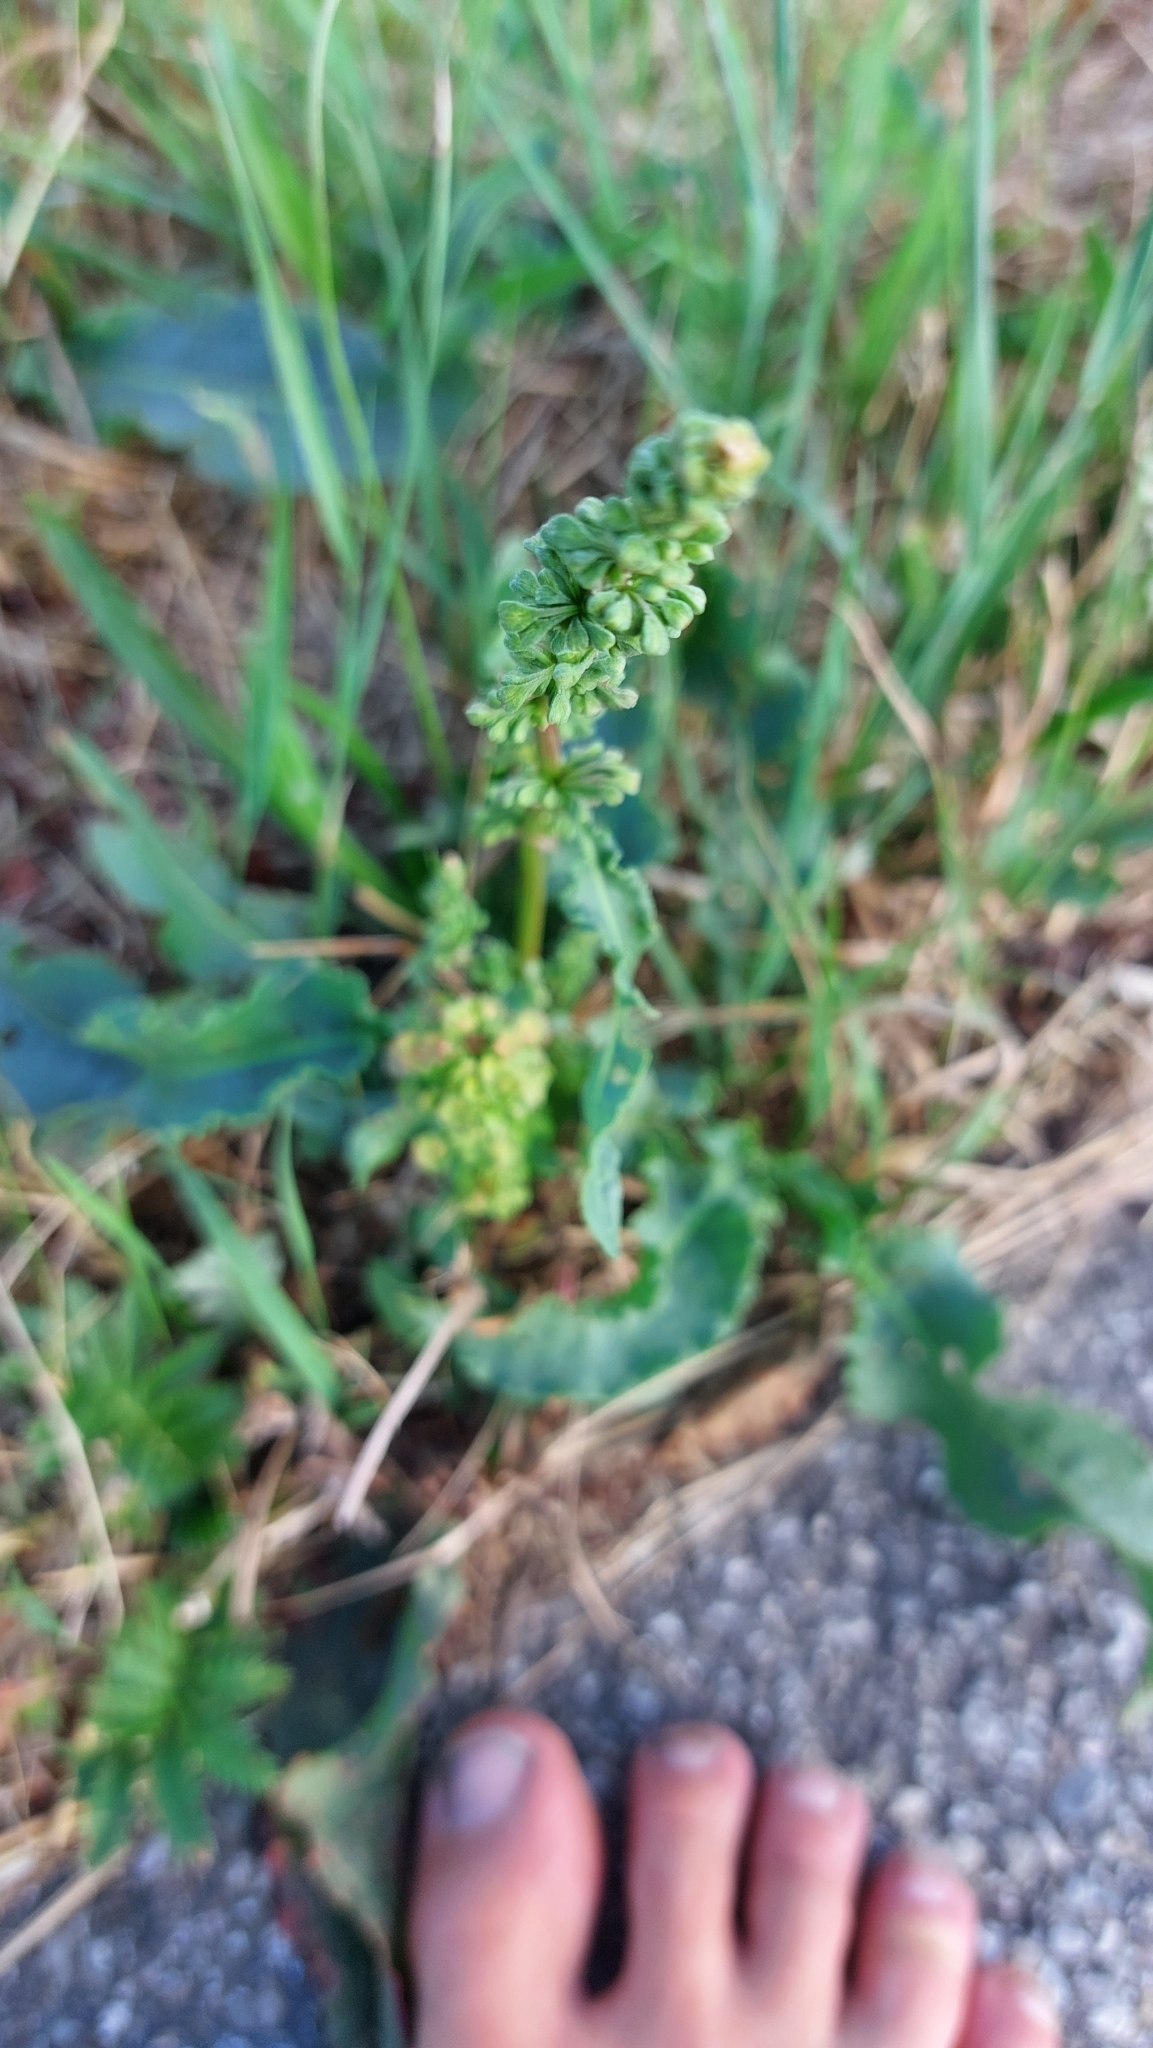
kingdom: Plantae
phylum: Tracheophyta
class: Magnoliopsida
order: Caryophyllales
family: Polygonaceae
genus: Rumex
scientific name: Rumex crispus
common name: Curled dock
